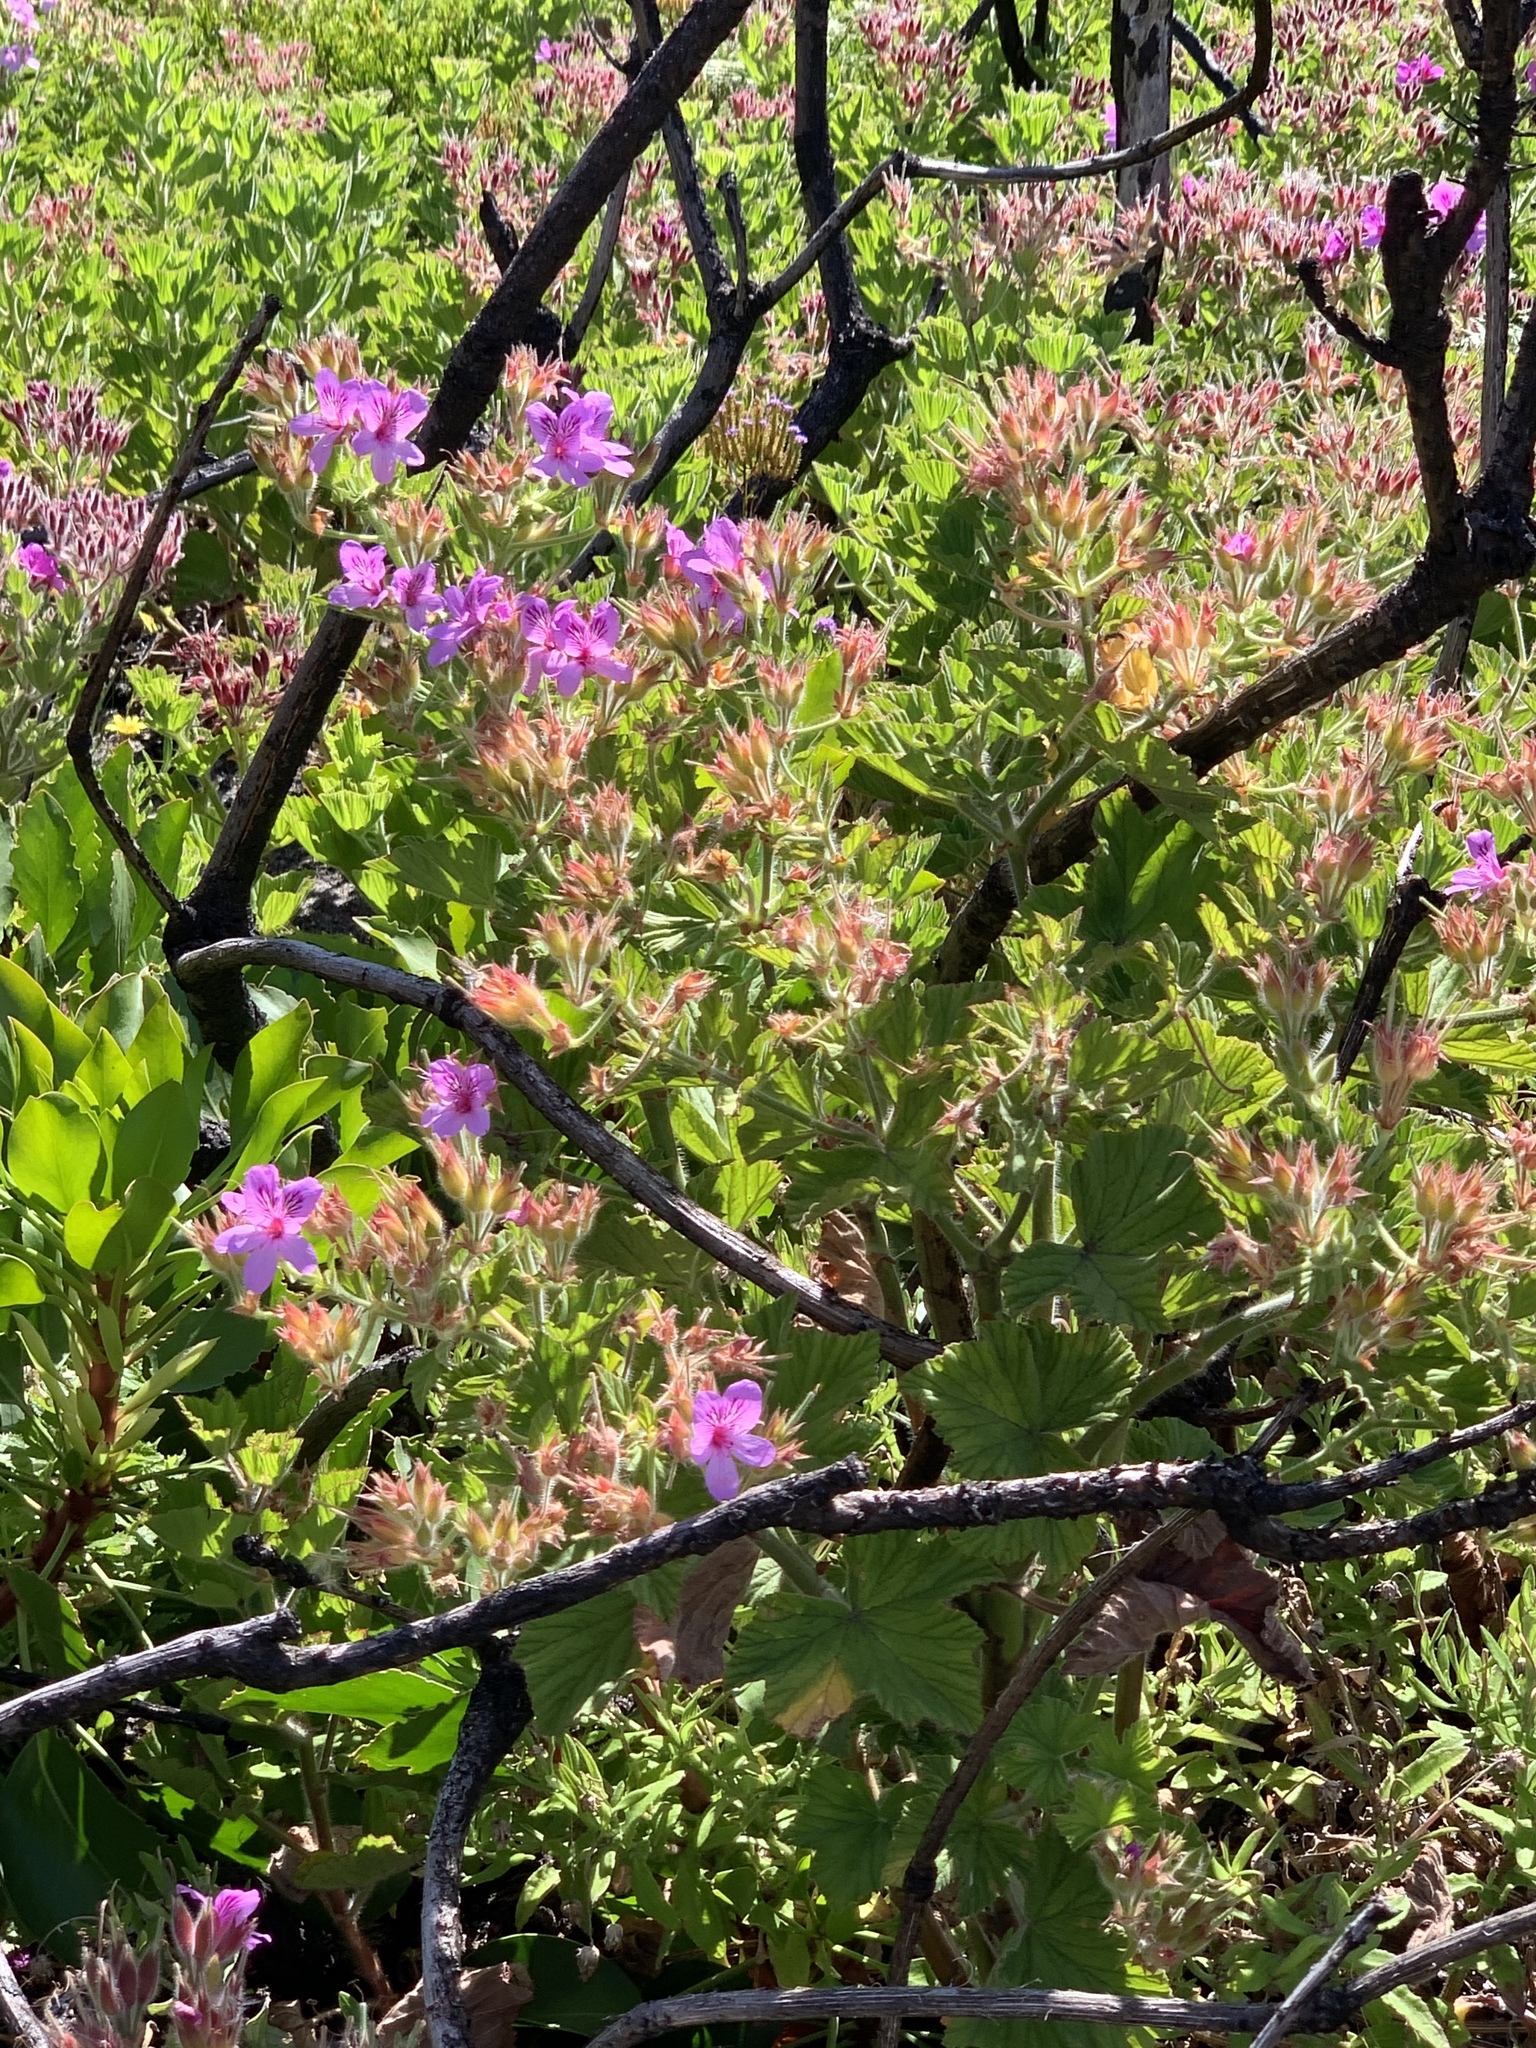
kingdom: Plantae
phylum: Tracheophyta
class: Magnoliopsida
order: Geraniales
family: Geraniaceae
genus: Pelargonium
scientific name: Pelargonium cucullatum
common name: Tree pelargonium
